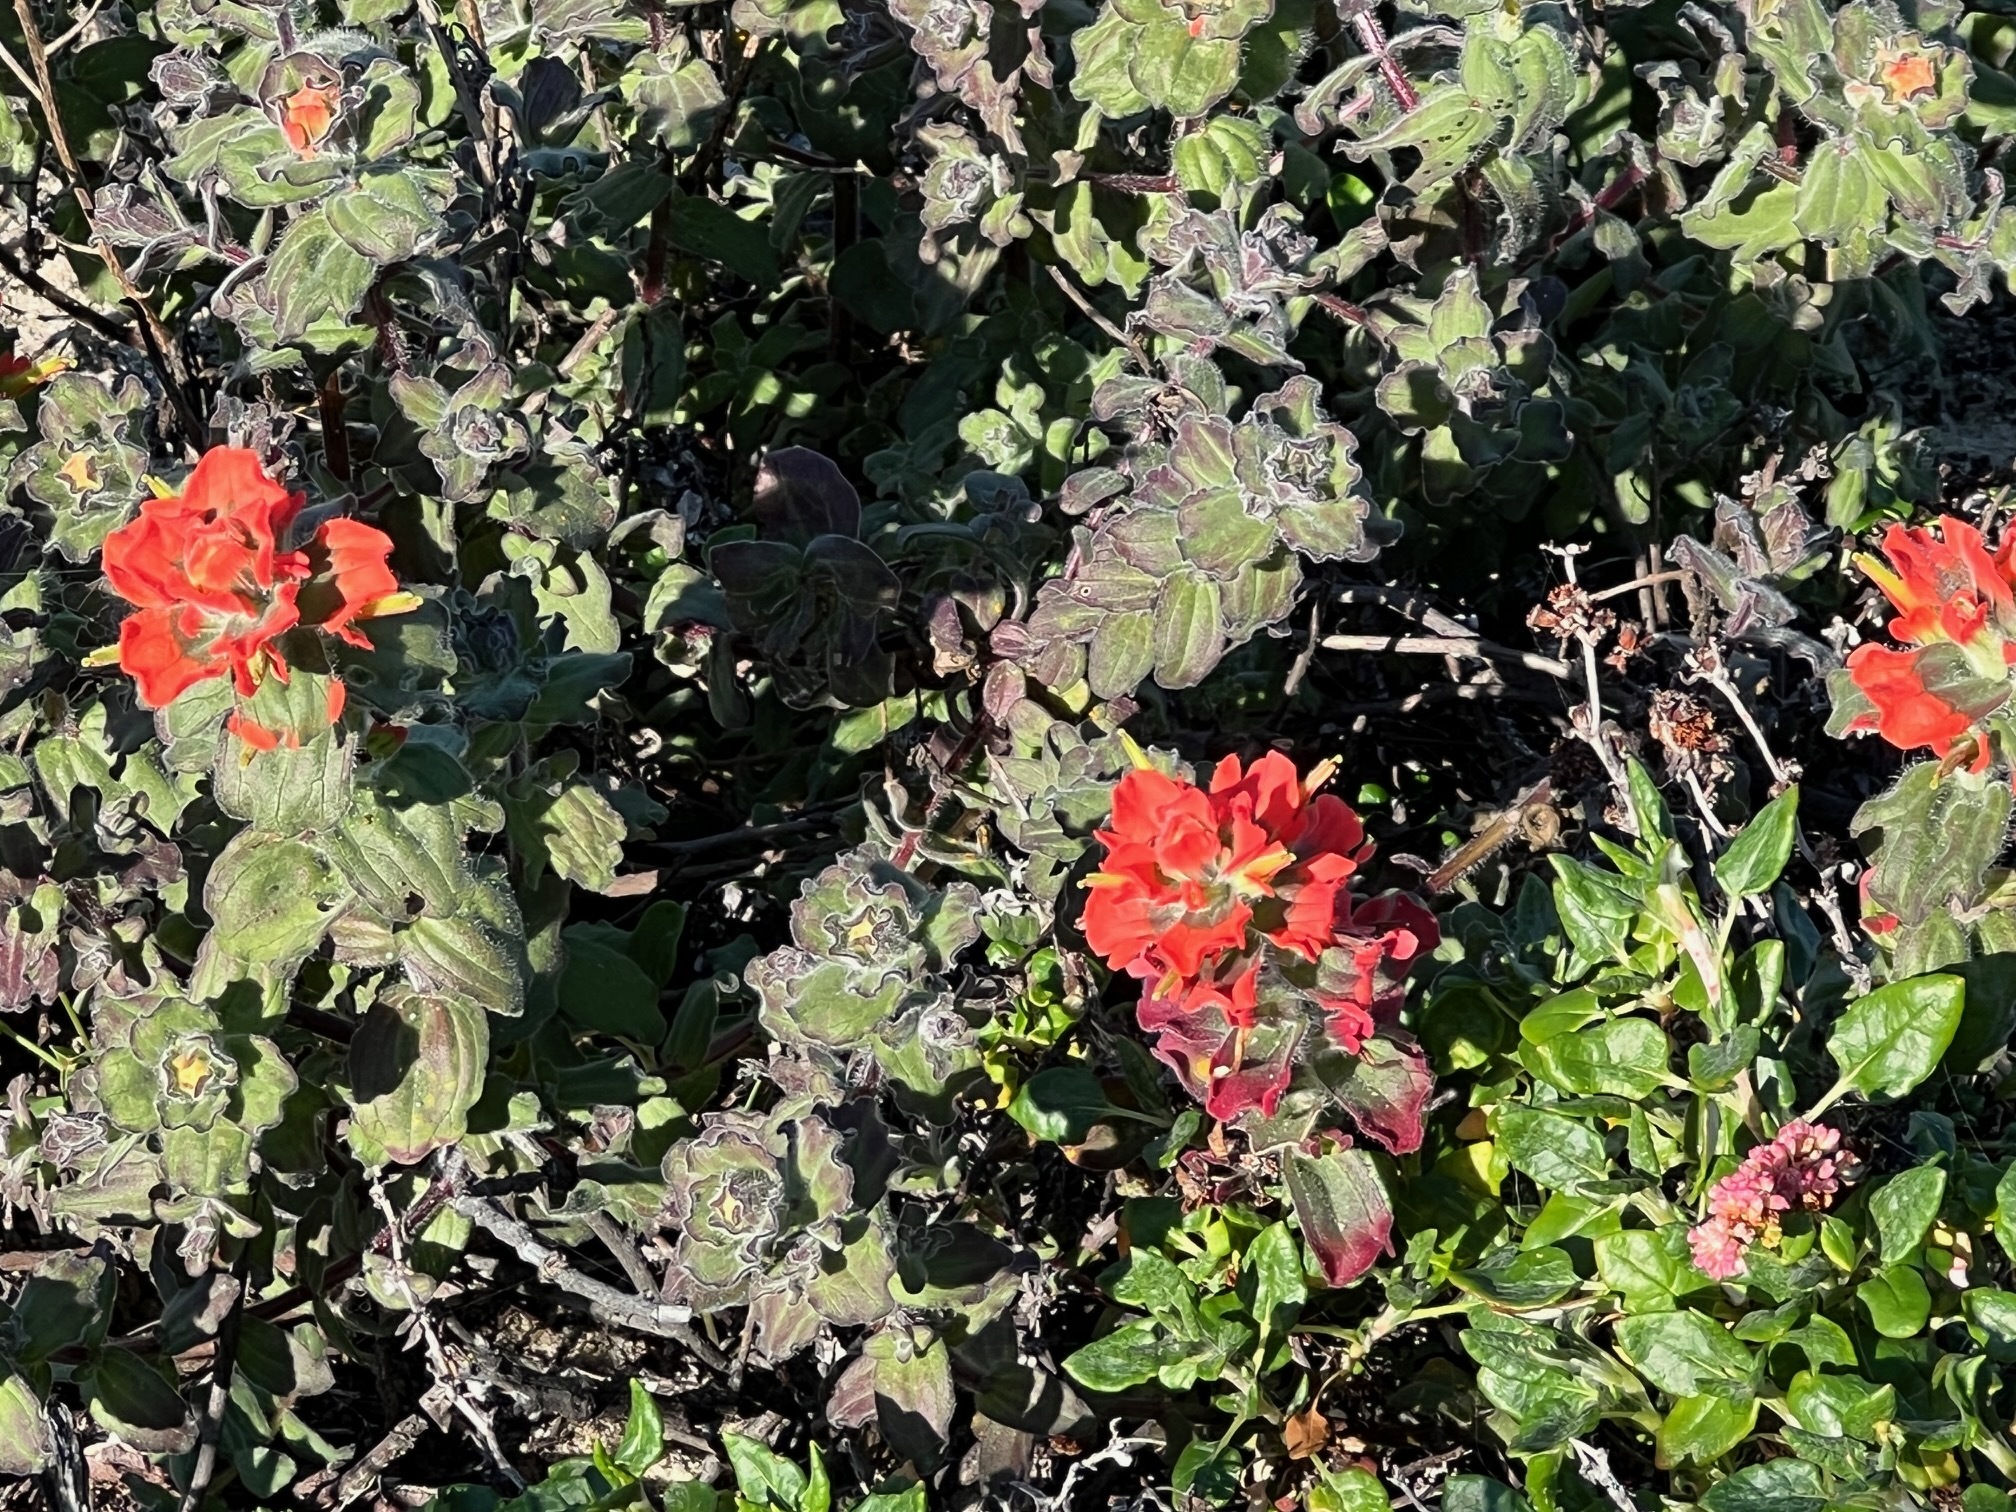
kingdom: Plantae
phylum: Tracheophyta
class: Magnoliopsida
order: Lamiales
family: Orobanchaceae
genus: Castilleja
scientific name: Castilleja latifolia
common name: Monterey indian paintbrush
